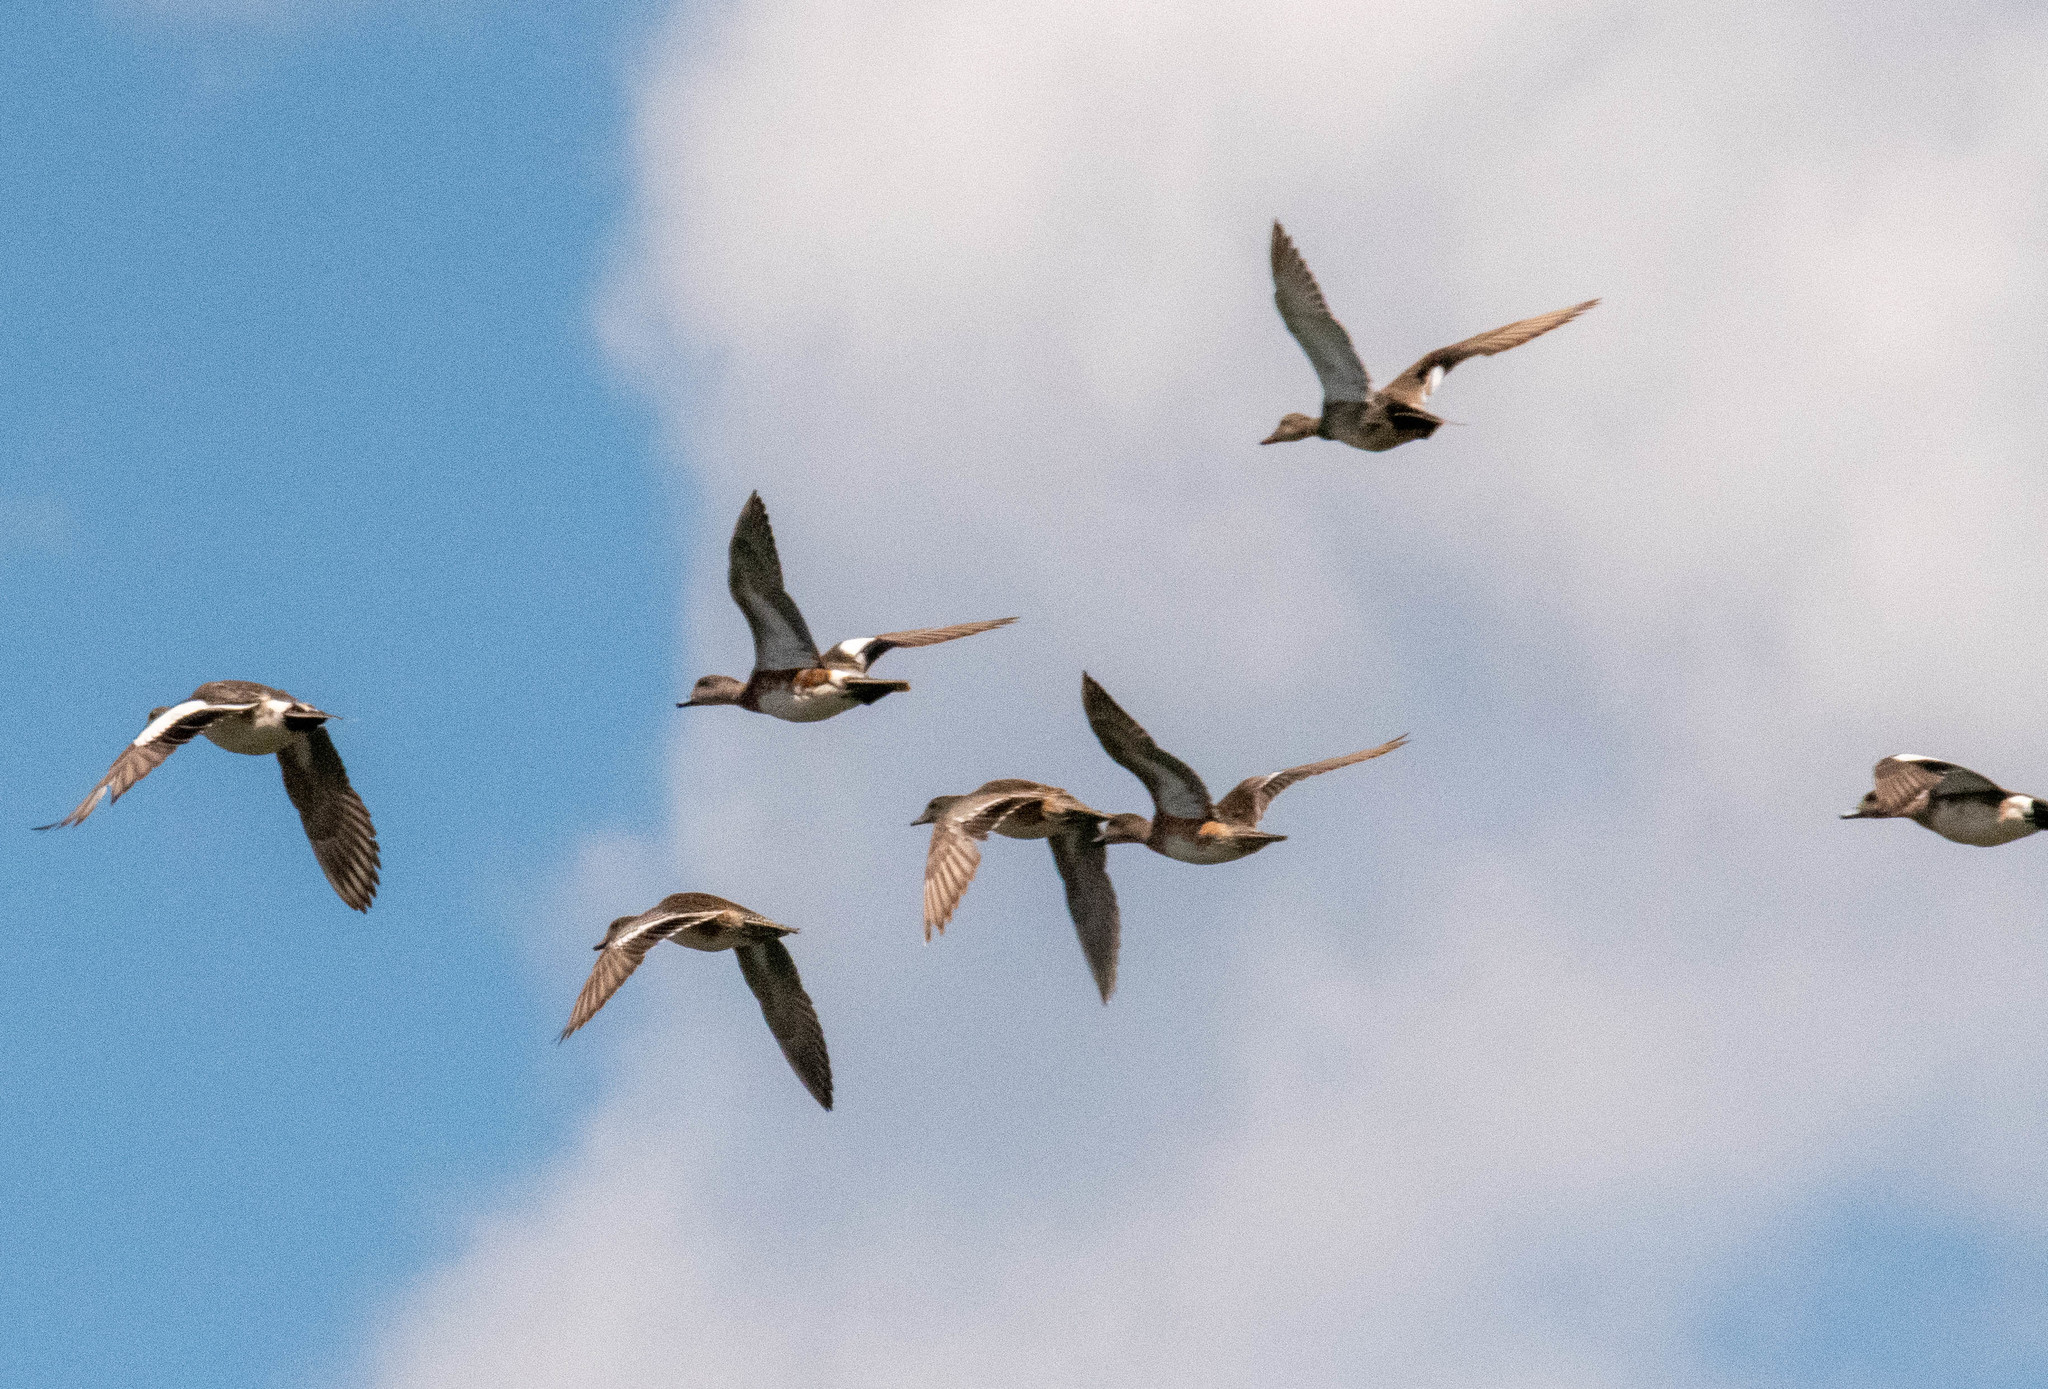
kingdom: Animalia
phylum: Chordata
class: Aves
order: Anseriformes
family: Anatidae
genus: Mareca
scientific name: Mareca americana
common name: American wigeon
